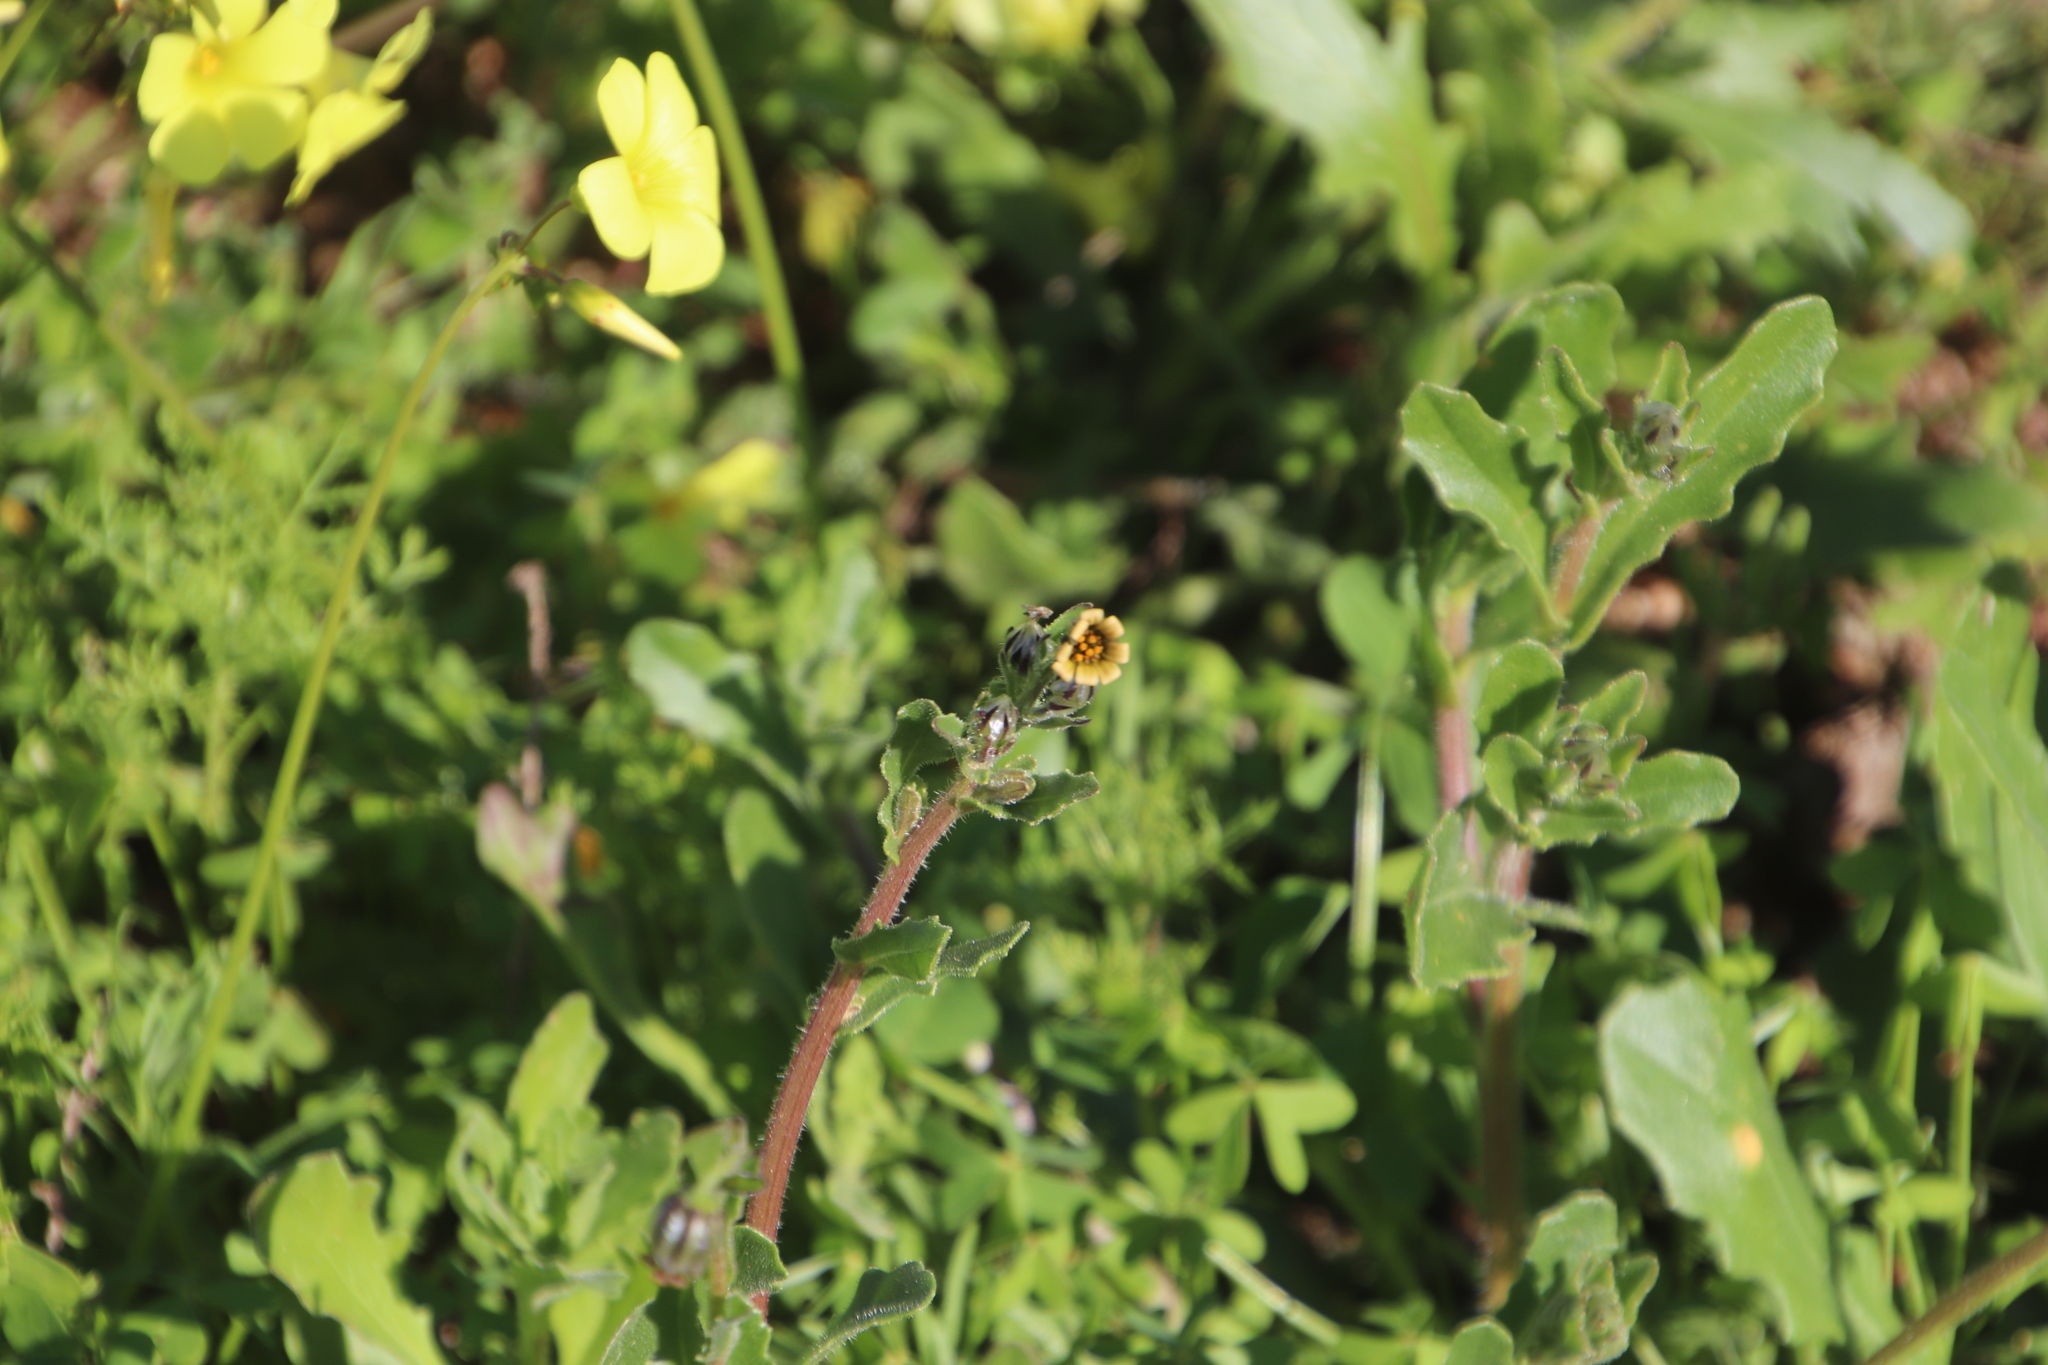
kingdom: Plantae
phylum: Tracheophyta
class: Magnoliopsida
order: Asterales
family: Asteraceae
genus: Osteospermum
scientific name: Osteospermum monstrosum
